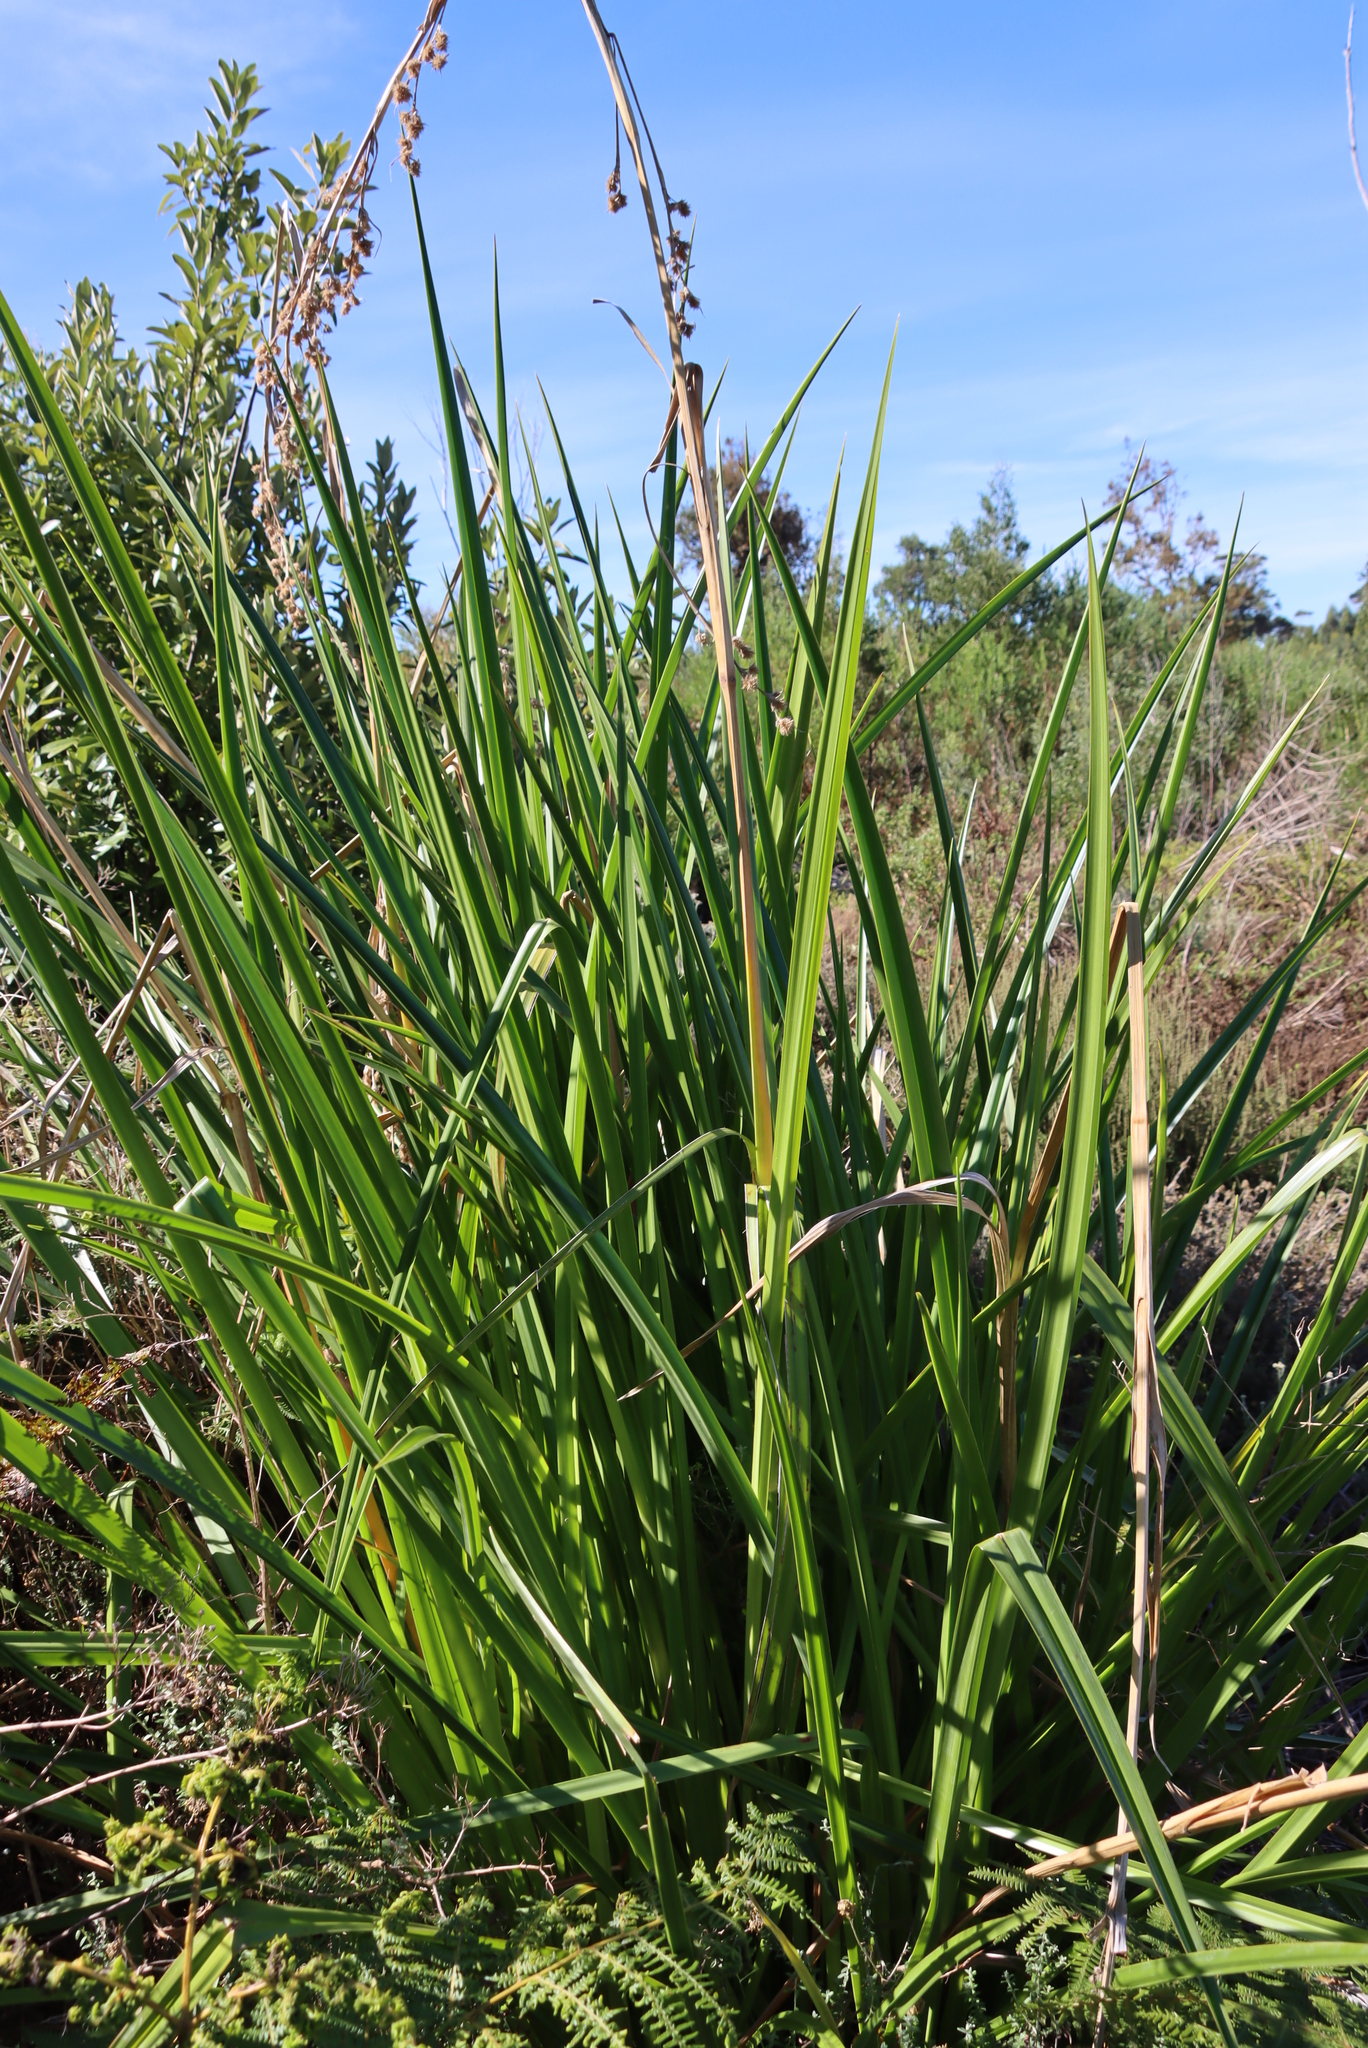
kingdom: Plantae
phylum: Tracheophyta
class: Liliopsida
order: Poales
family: Cyperaceae
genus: Carpha
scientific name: Carpha glomerata
